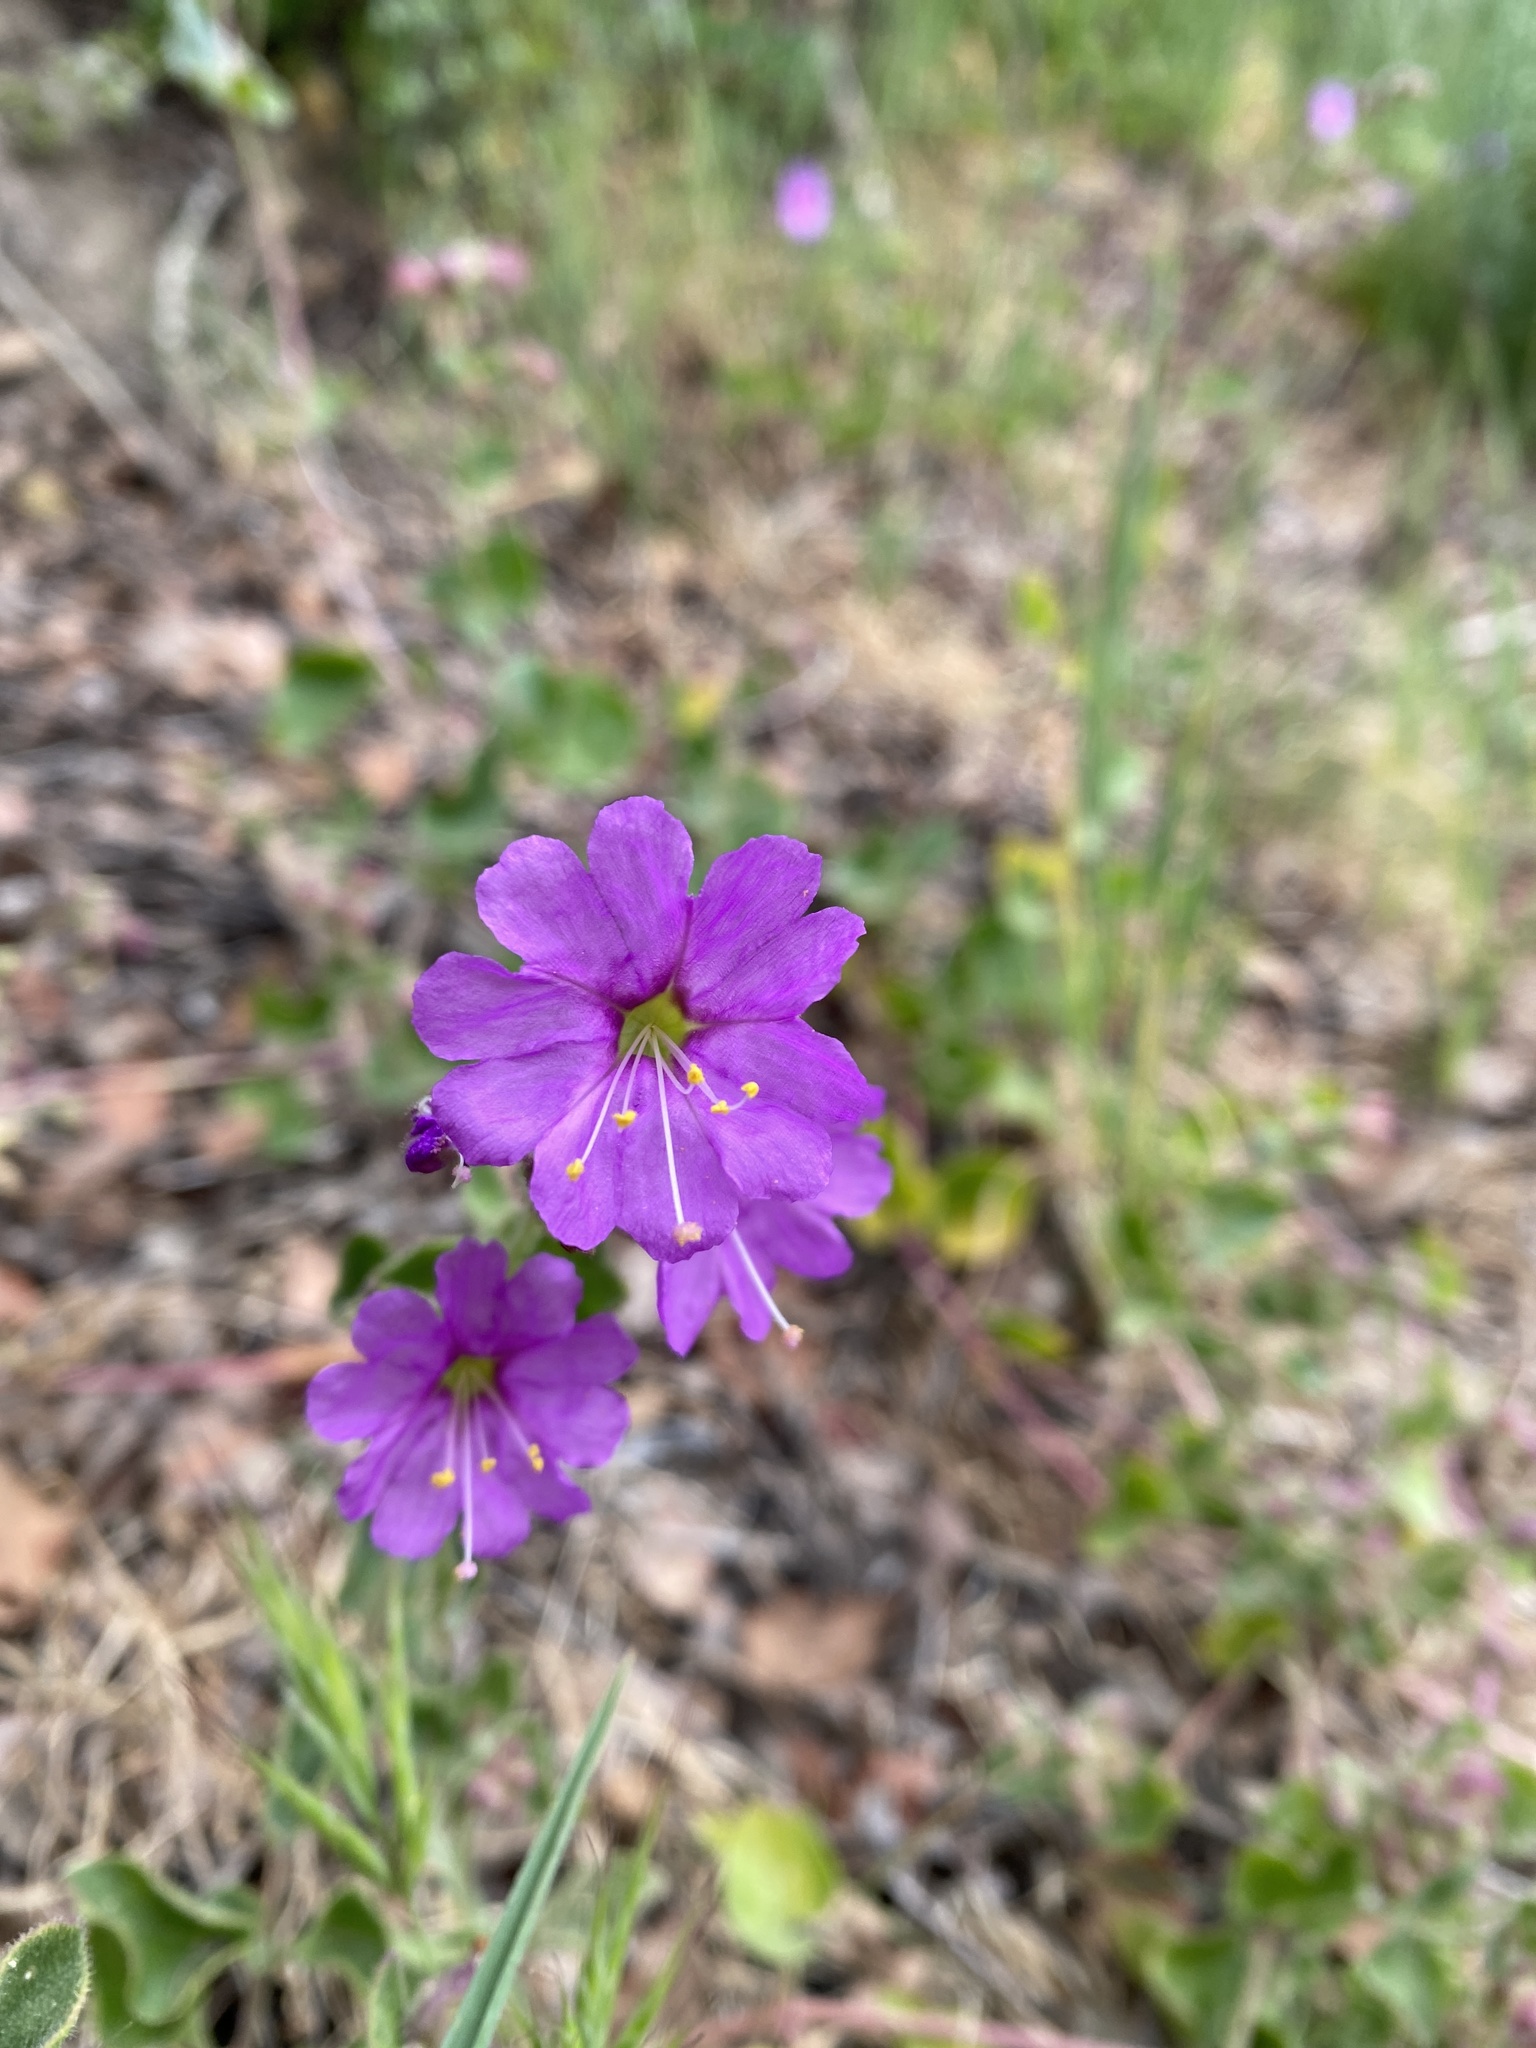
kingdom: Plantae
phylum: Tracheophyta
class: Magnoliopsida
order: Caryophyllales
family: Nyctaginaceae
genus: Mirabilis
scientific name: Mirabilis laevis
